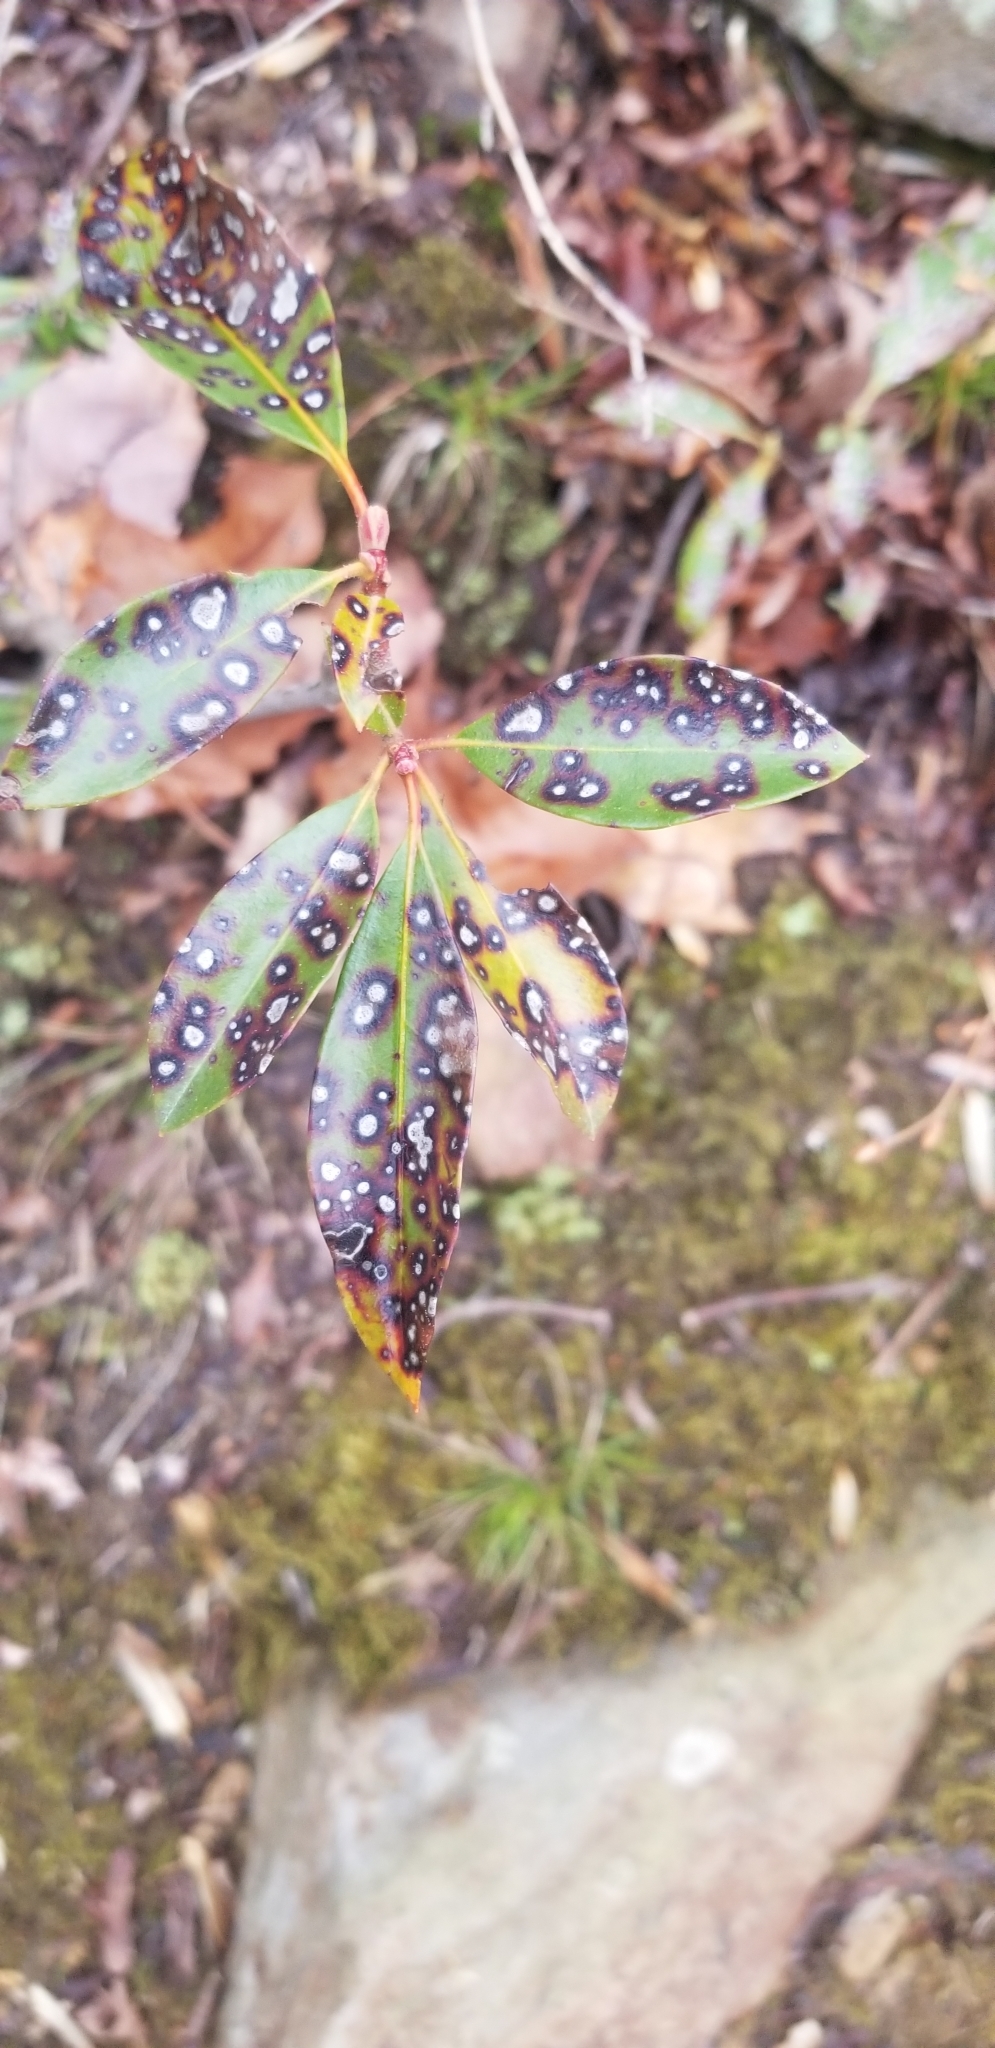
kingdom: Fungi
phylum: Ascomycota
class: Dothideomycetes
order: Mycosphaerellales
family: Mycosphaerellaceae
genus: Mycosphaerella
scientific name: Mycosphaerella colorata
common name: Mountain laurel leaf spot
